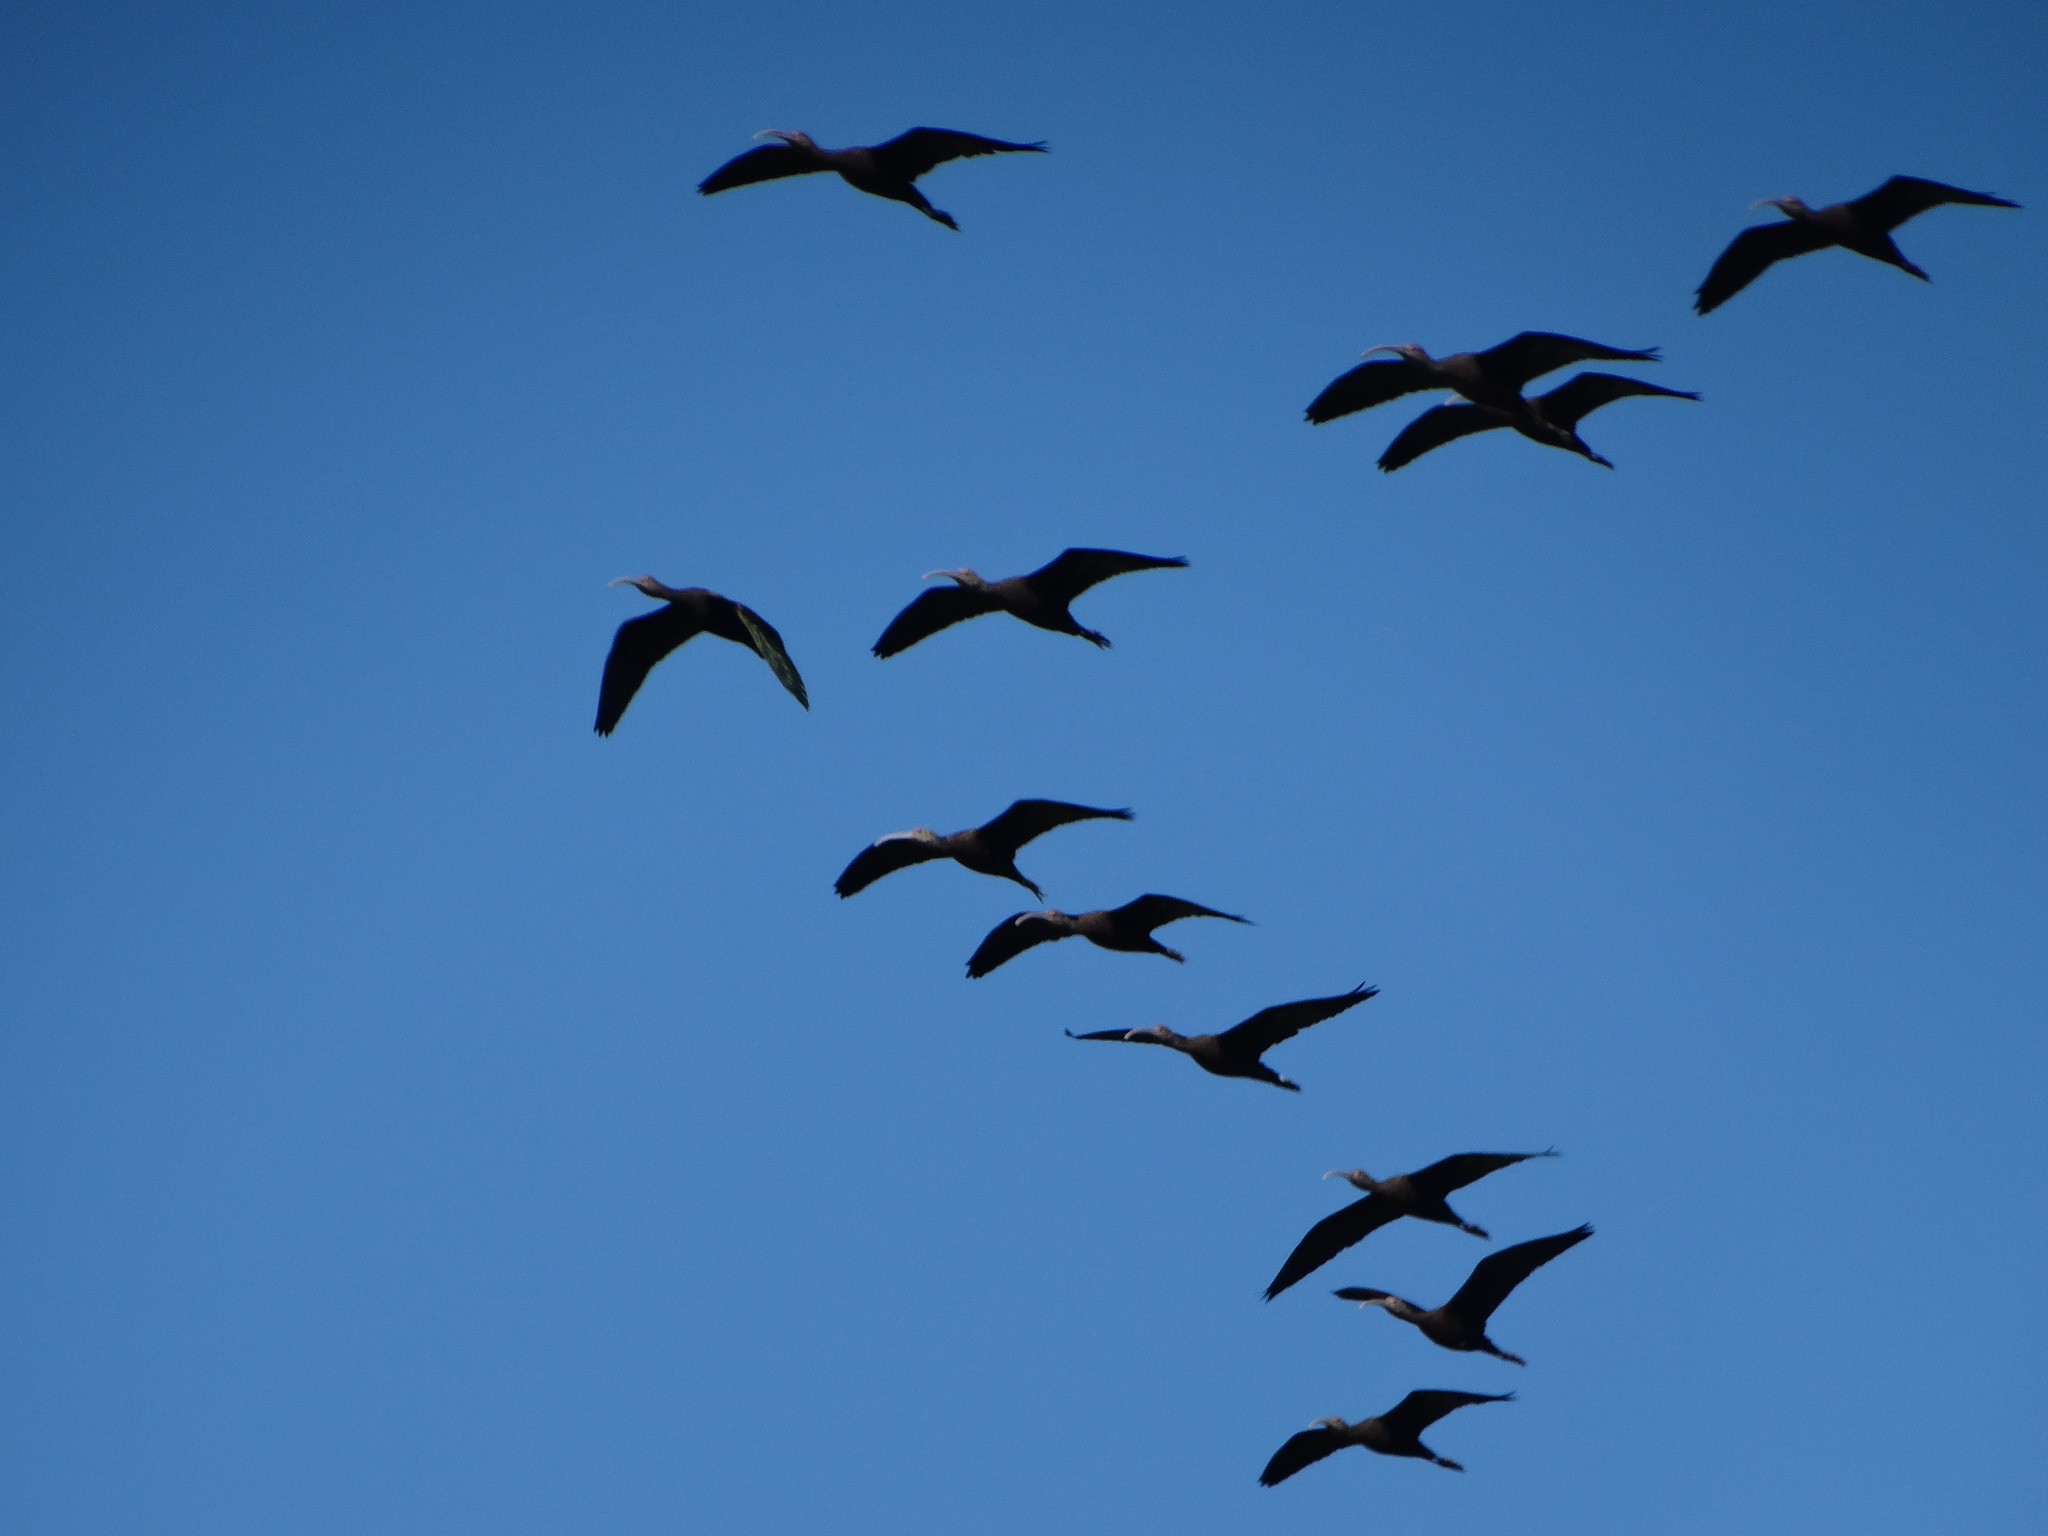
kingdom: Animalia
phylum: Chordata
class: Aves
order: Pelecaniformes
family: Threskiornithidae
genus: Plegadis
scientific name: Plegadis chihi
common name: White-faced ibis
